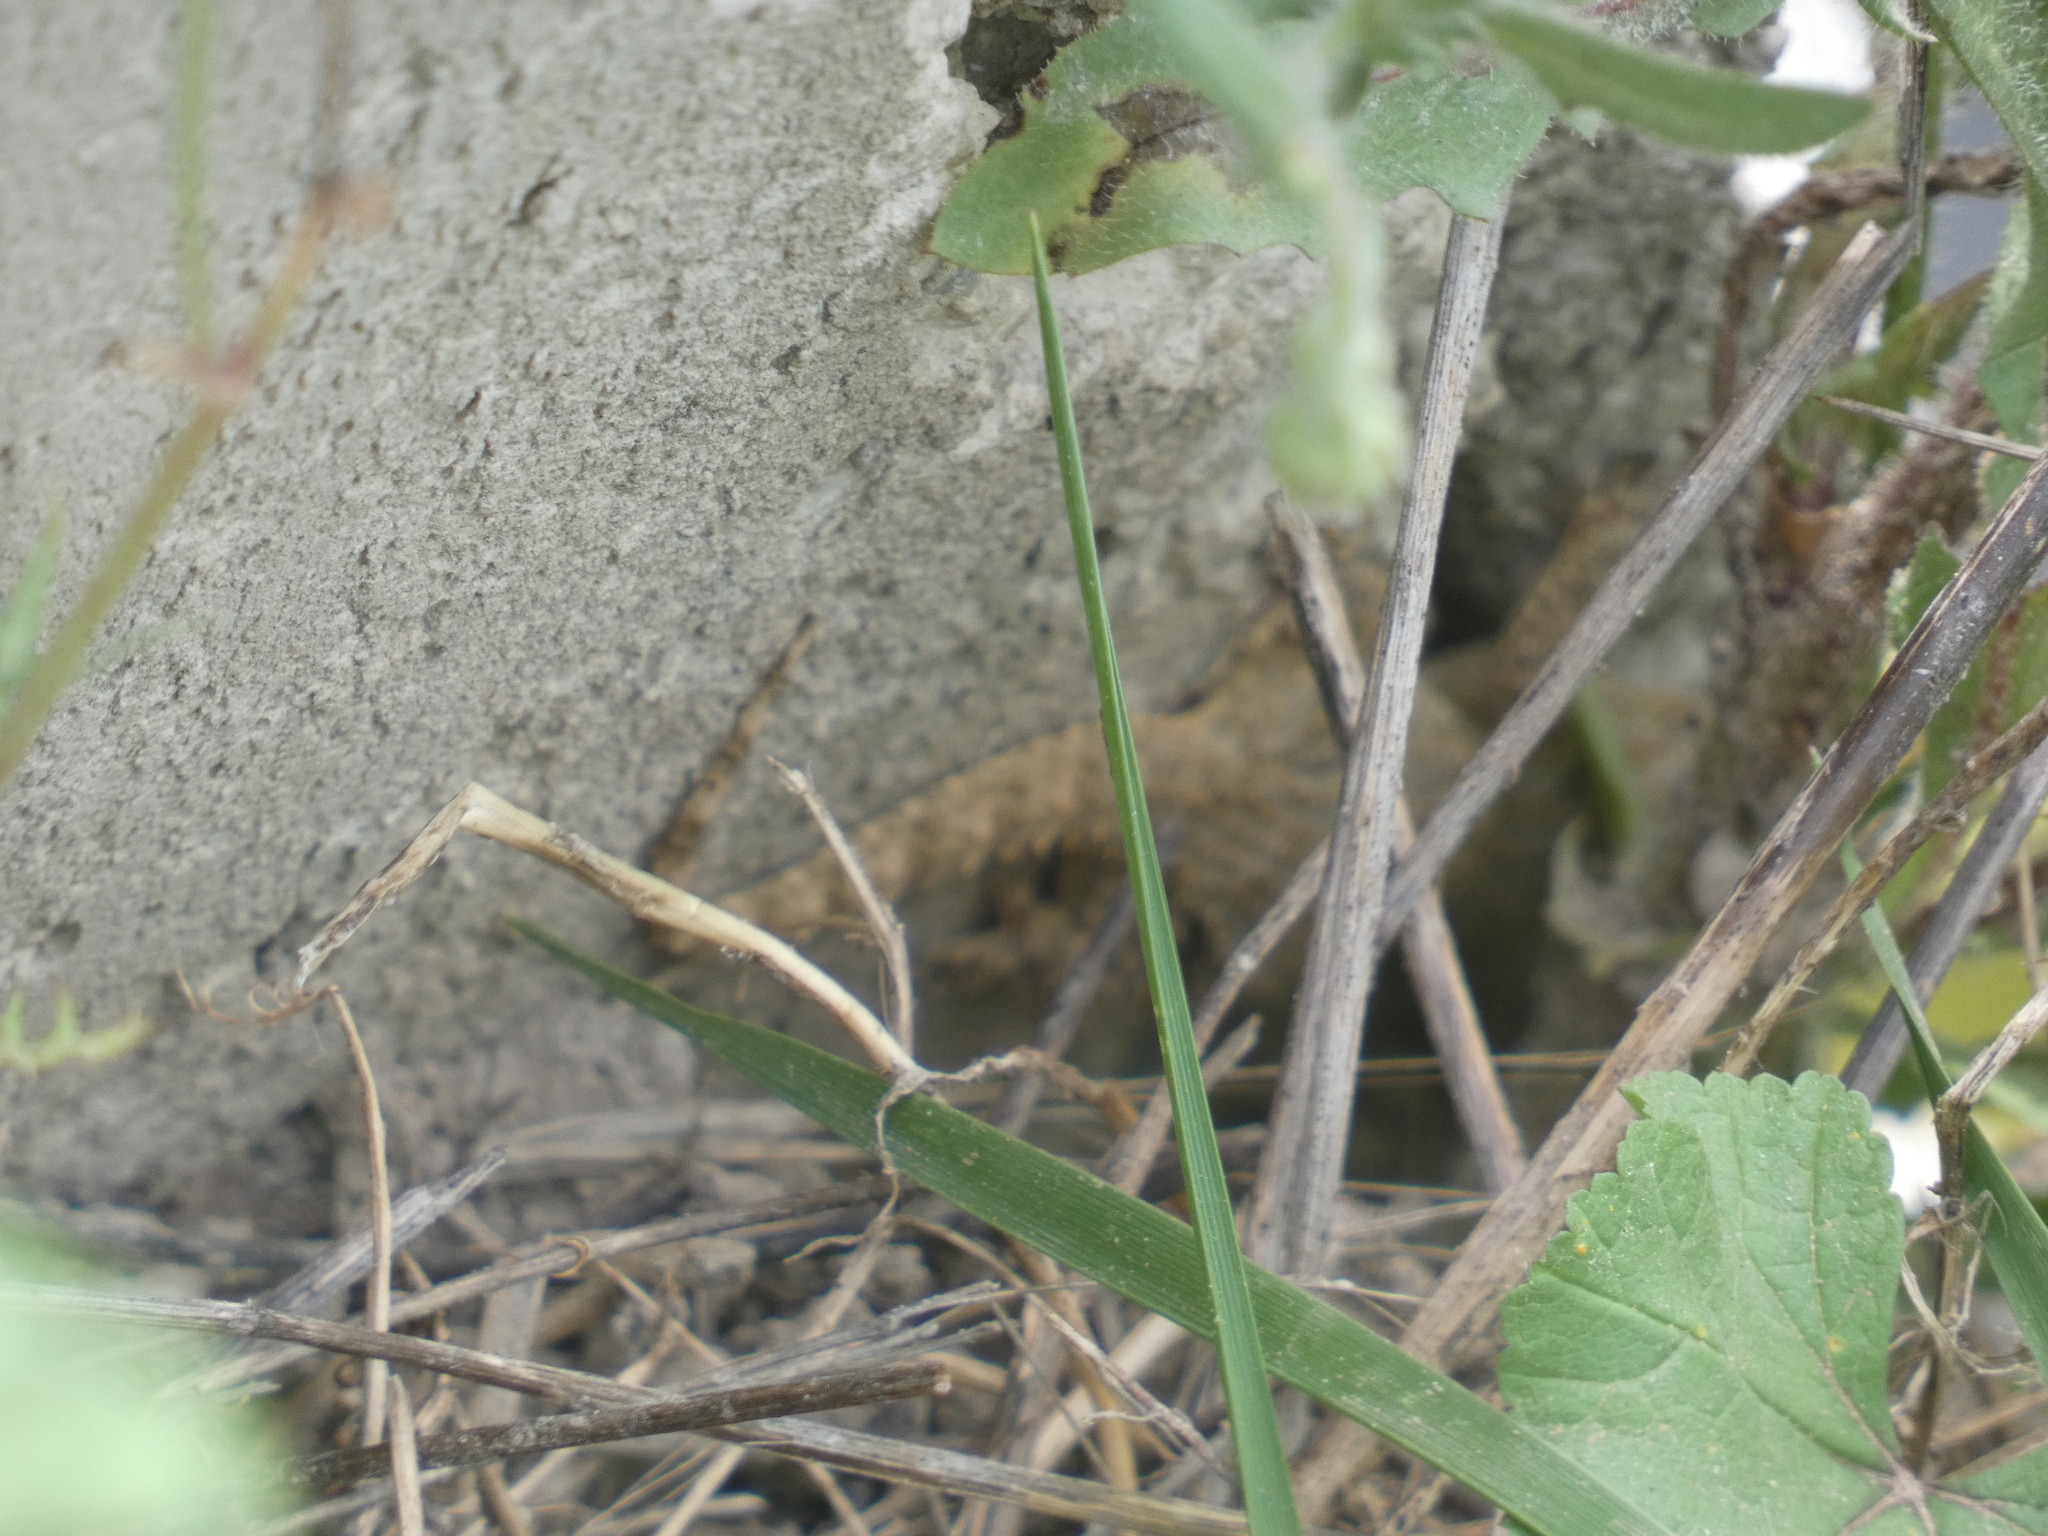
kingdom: Animalia
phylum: Chordata
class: Squamata
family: Phyllodactylidae
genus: Tarentola
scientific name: Tarentola mauritanica
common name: Moorish gecko
